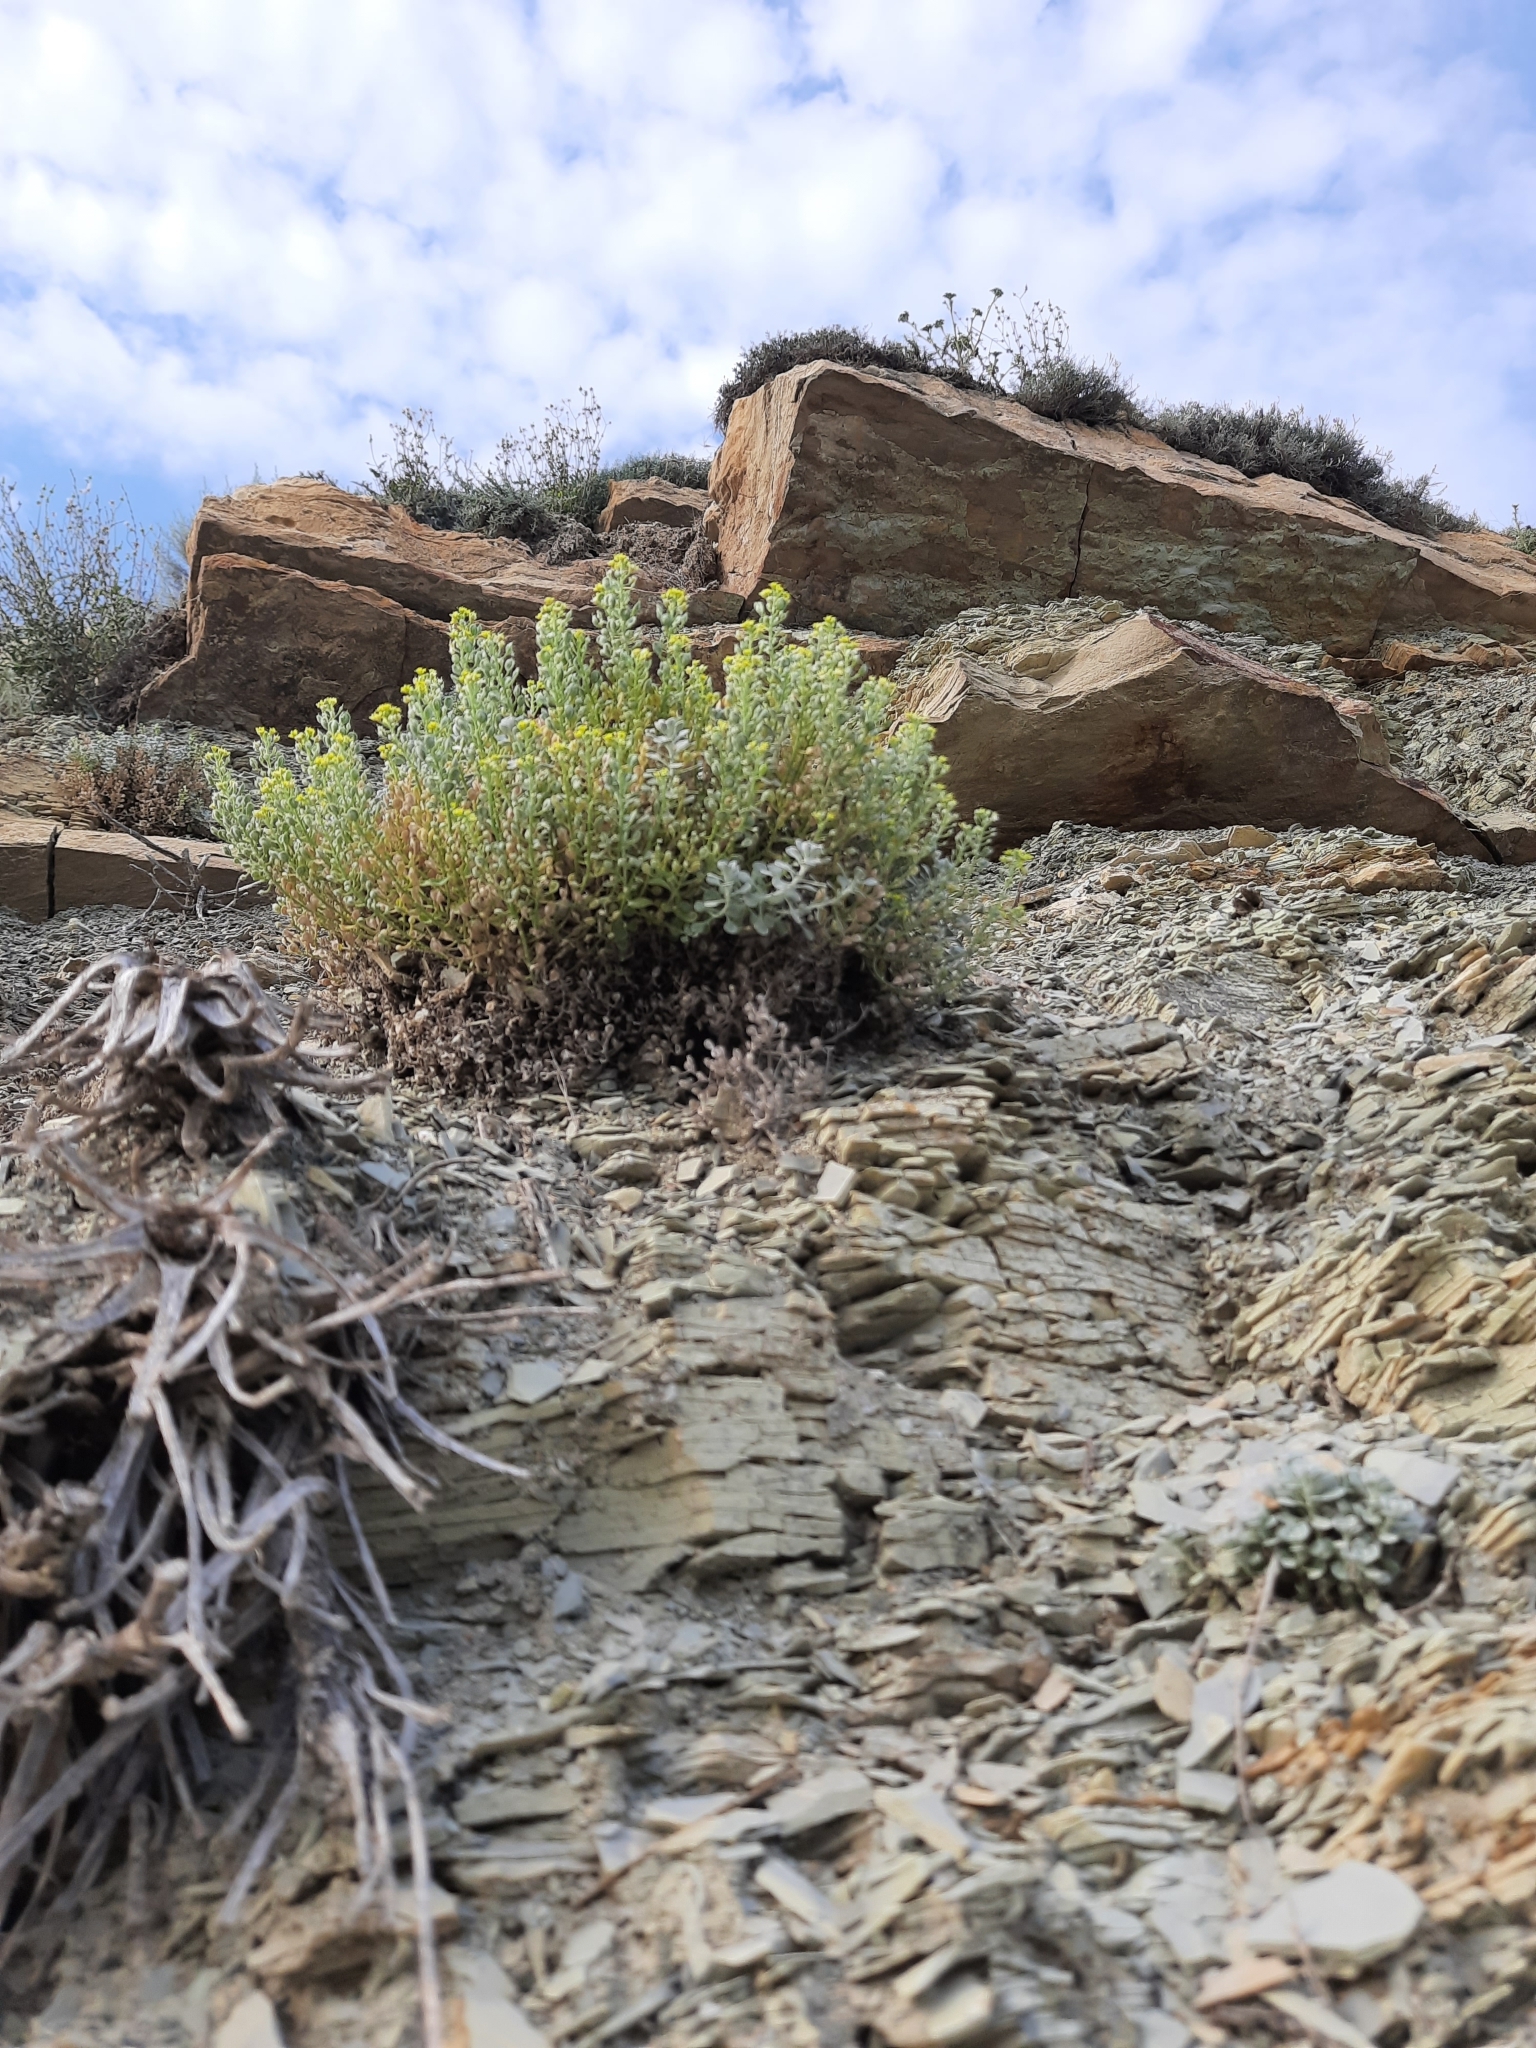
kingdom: Plantae
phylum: Tracheophyta
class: Magnoliopsida
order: Brassicales
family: Brassicaceae
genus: Odontarrhena
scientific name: Odontarrhena obtusifolia
